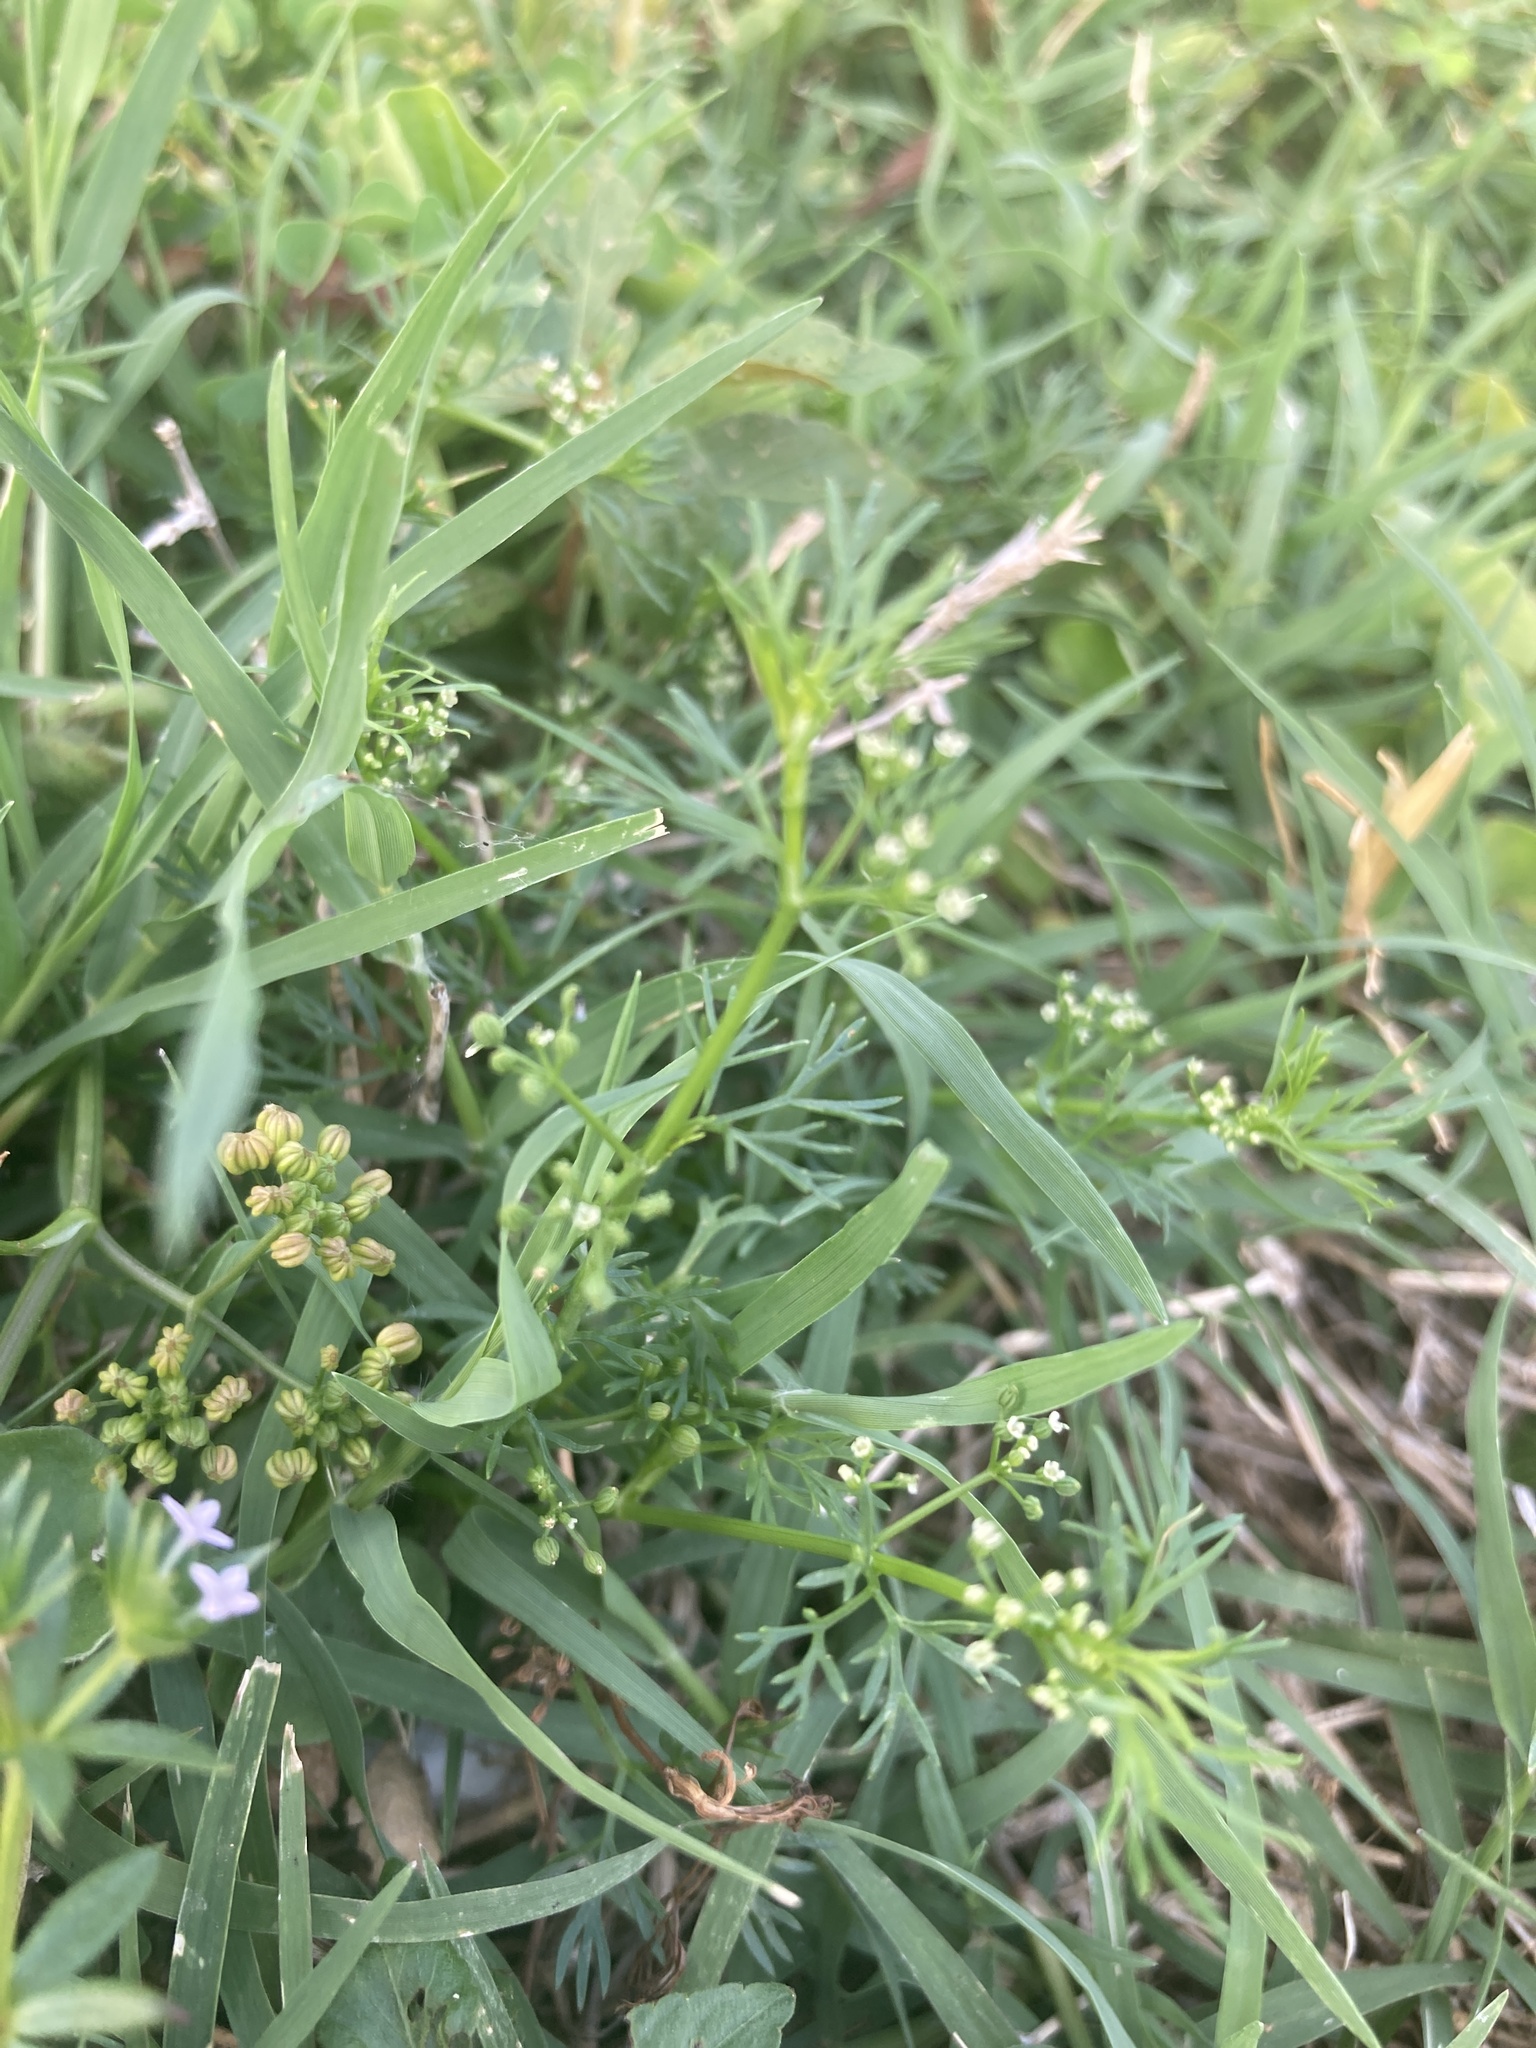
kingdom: Plantae
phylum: Tracheophyta
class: Magnoliopsida
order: Apiales
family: Apiaceae
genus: Cyclospermum
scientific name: Cyclospermum leptophyllum
